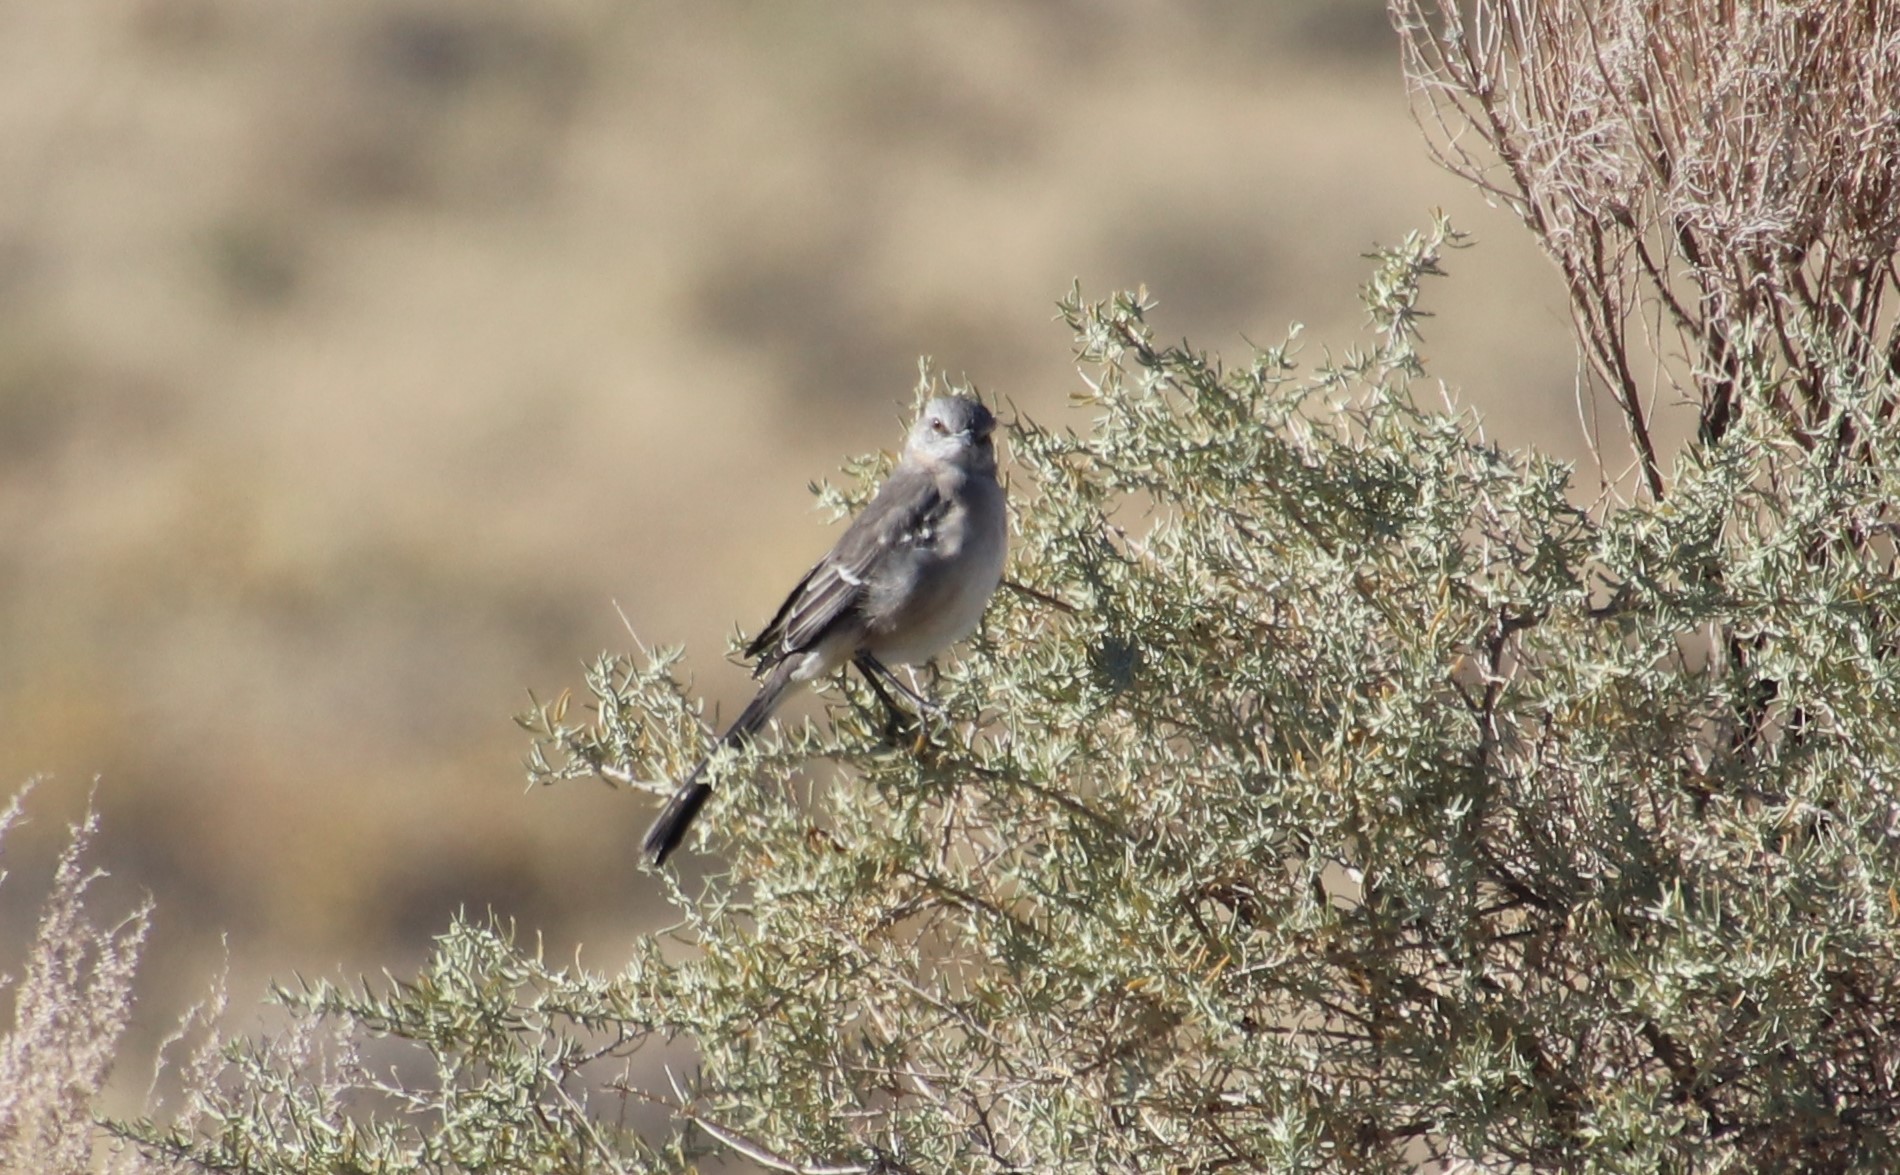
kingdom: Animalia
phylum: Chordata
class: Aves
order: Passeriformes
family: Mimidae
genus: Mimus
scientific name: Mimus polyglottos
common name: Northern mockingbird
